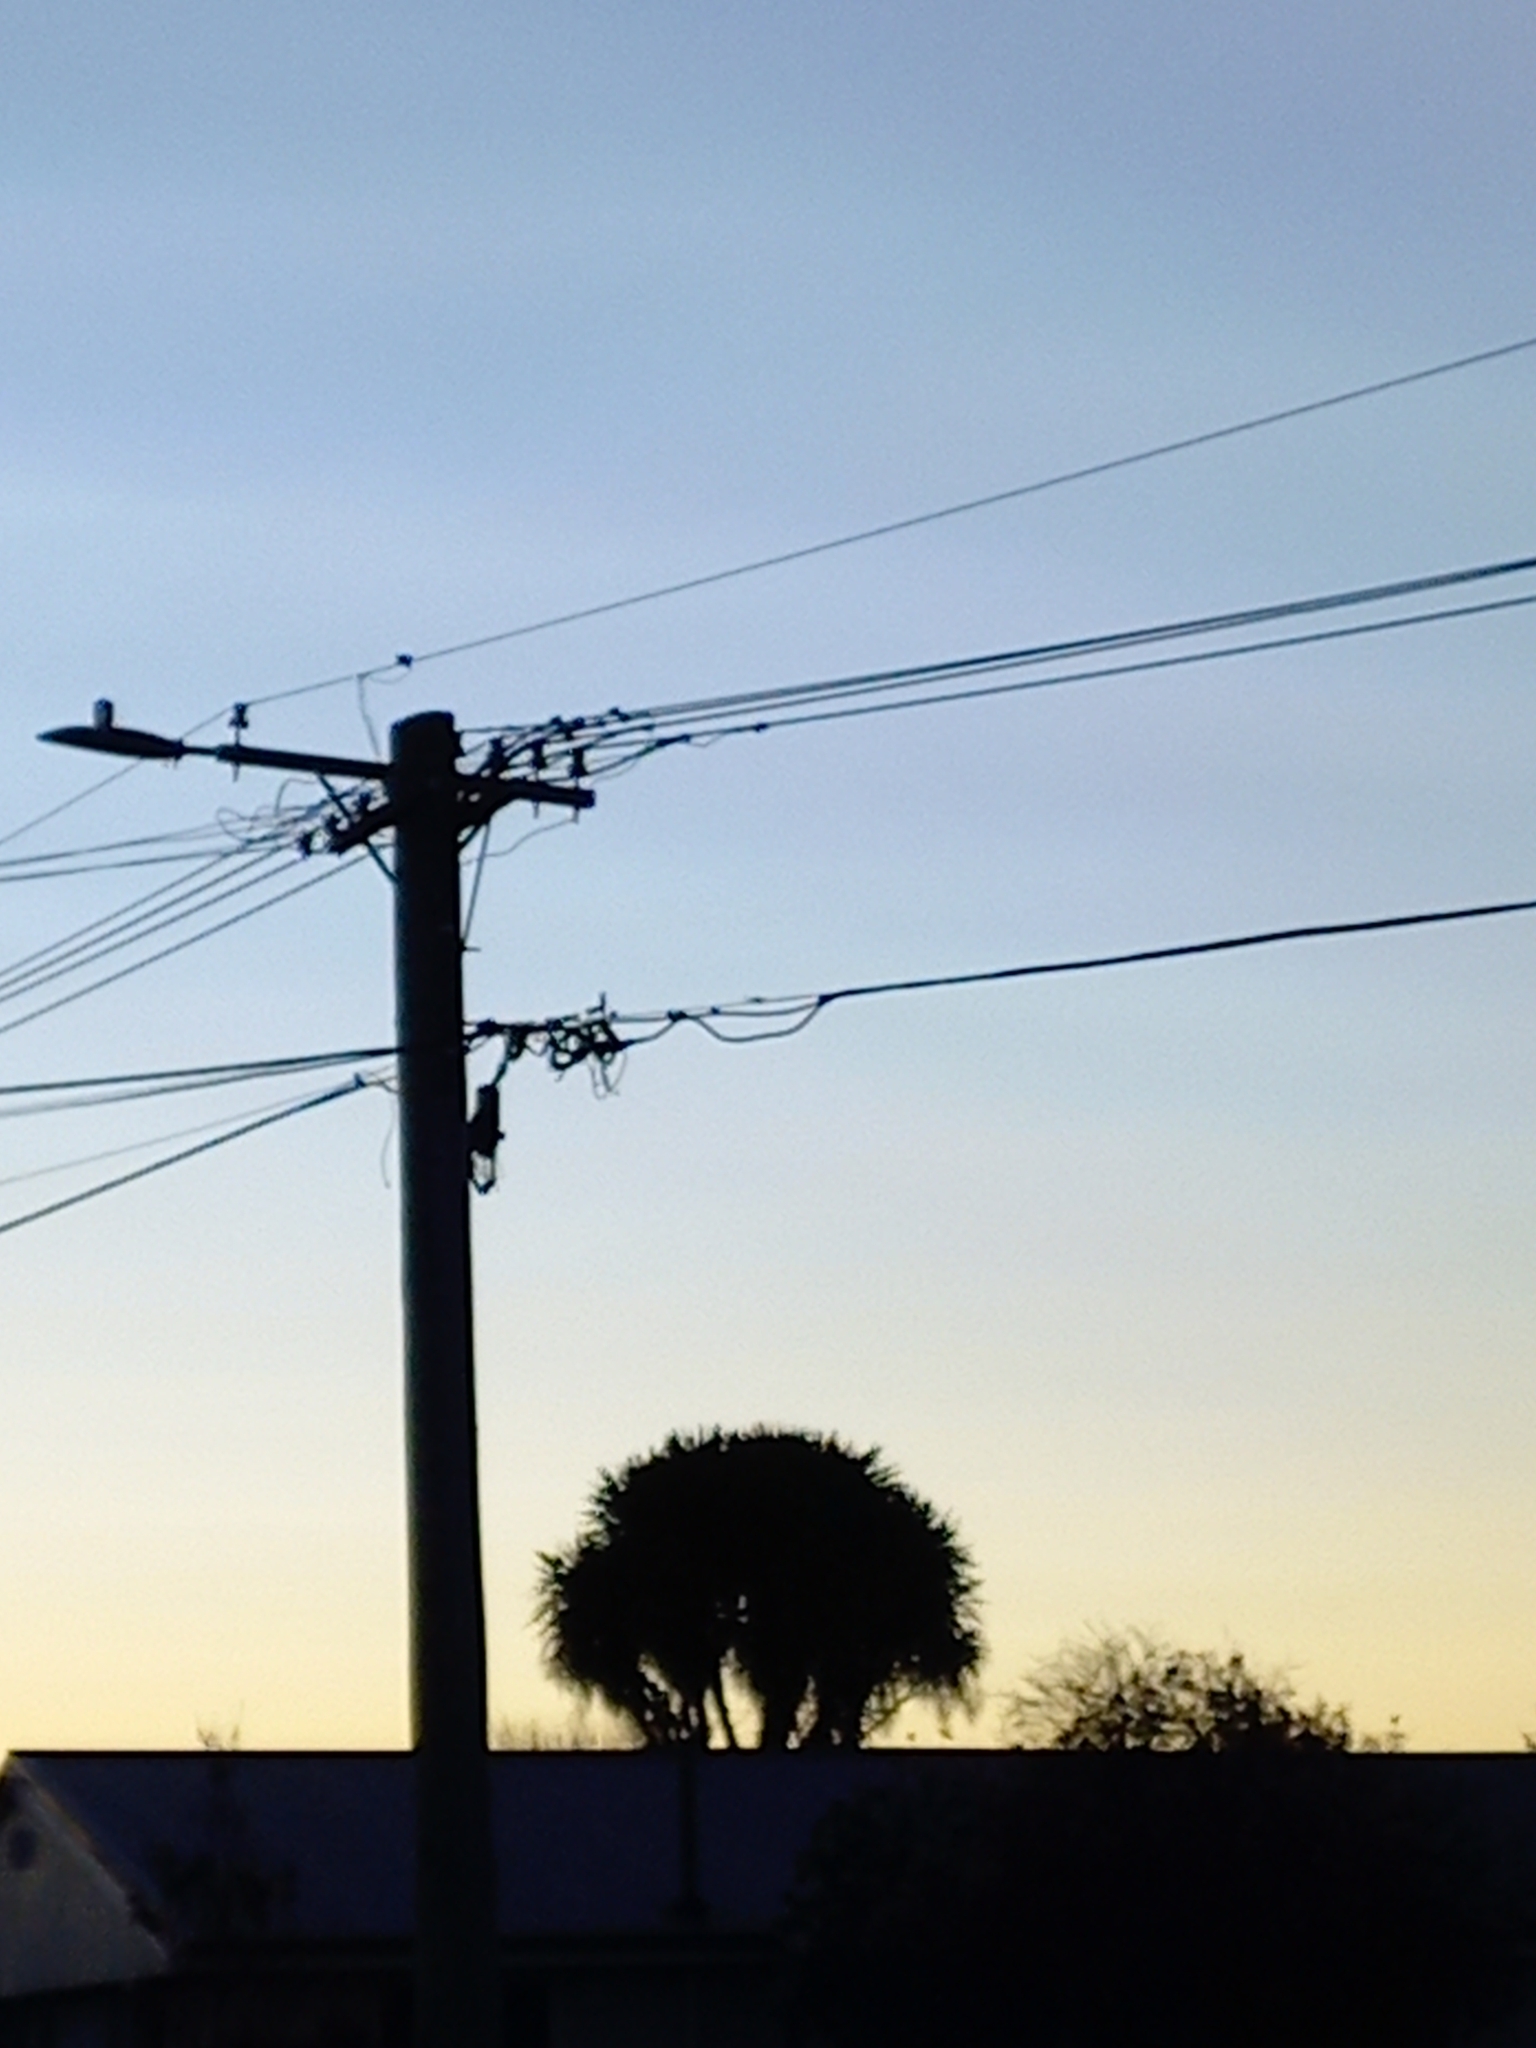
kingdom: Plantae
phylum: Tracheophyta
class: Liliopsida
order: Asparagales
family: Asparagaceae
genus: Cordyline
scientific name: Cordyline australis
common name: Cabbage-palm
